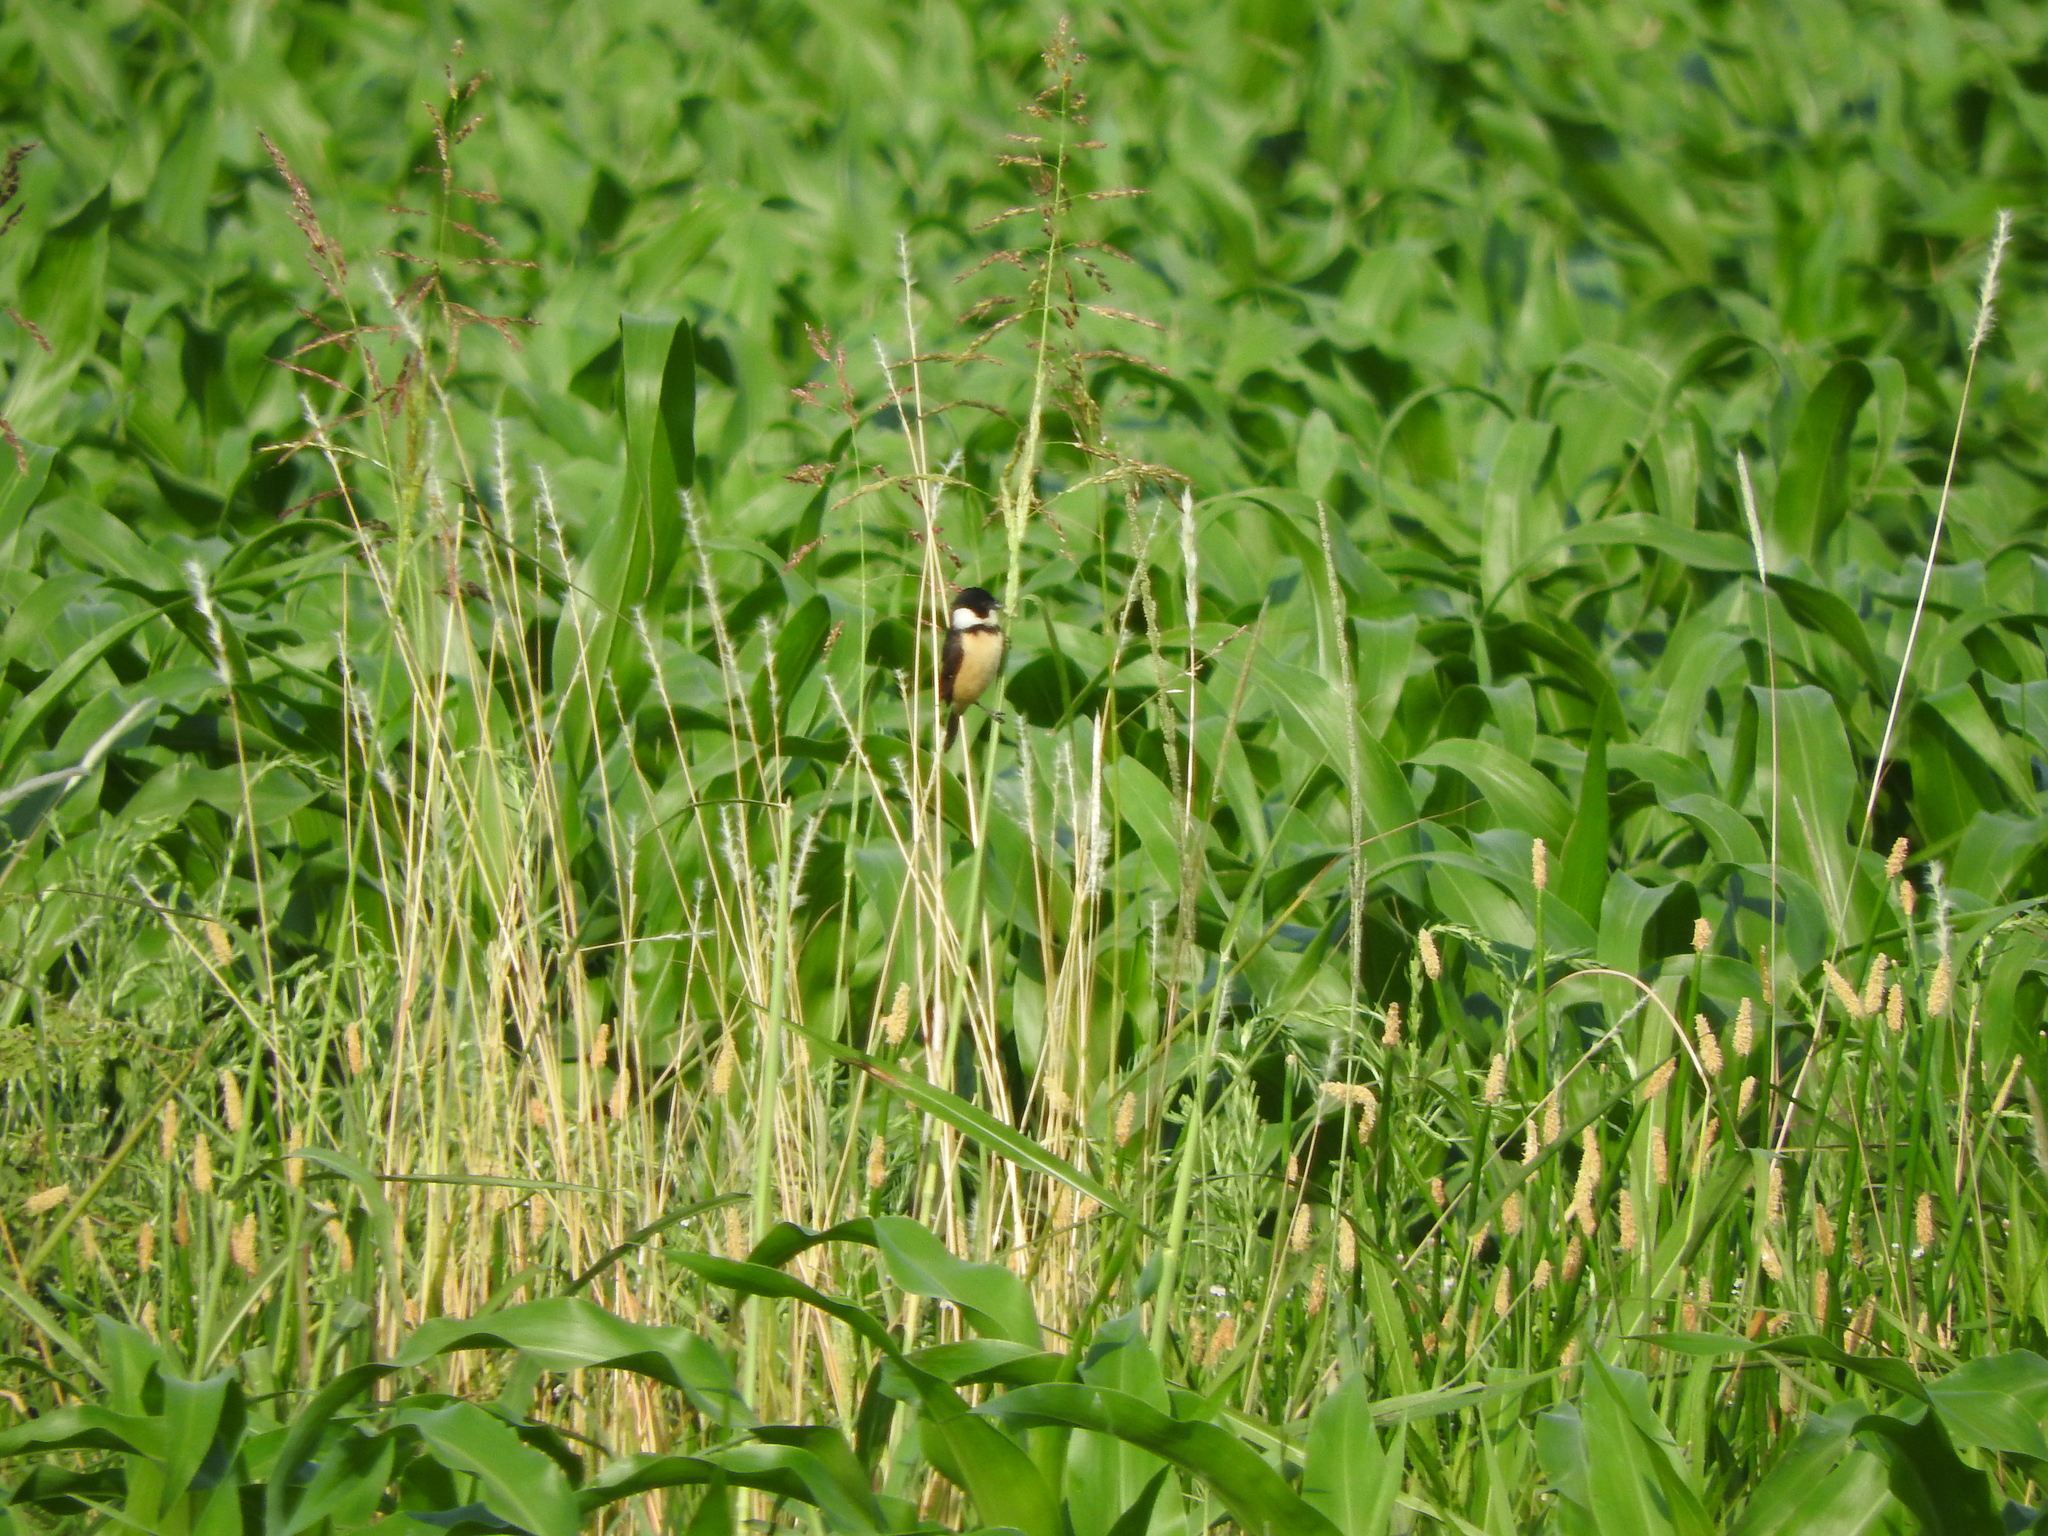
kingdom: Animalia
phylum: Chordata
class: Aves
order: Passeriformes
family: Thraupidae
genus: Sporophila
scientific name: Sporophila torqueola
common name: White-collared seedeater
